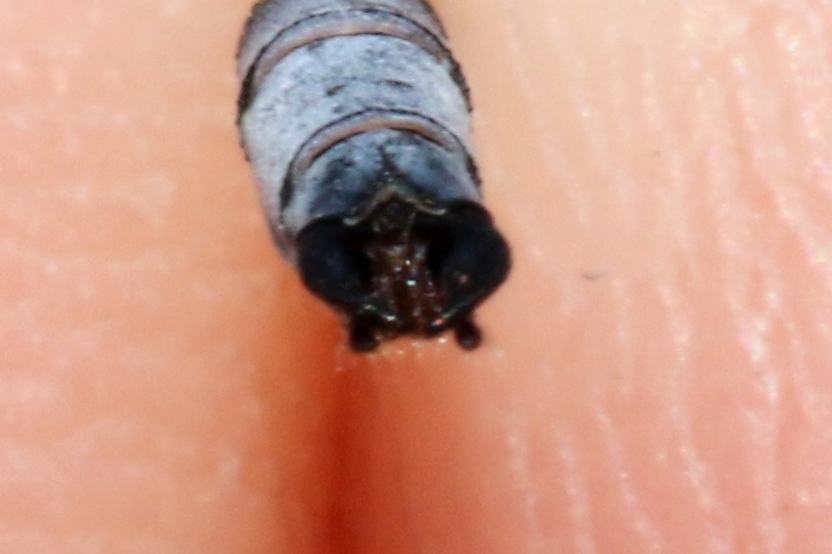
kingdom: Animalia
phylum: Arthropoda
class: Insecta
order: Odonata
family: Lestidae
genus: Lestes
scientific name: Lestes forcipatus
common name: Sweetflag spreadwing
